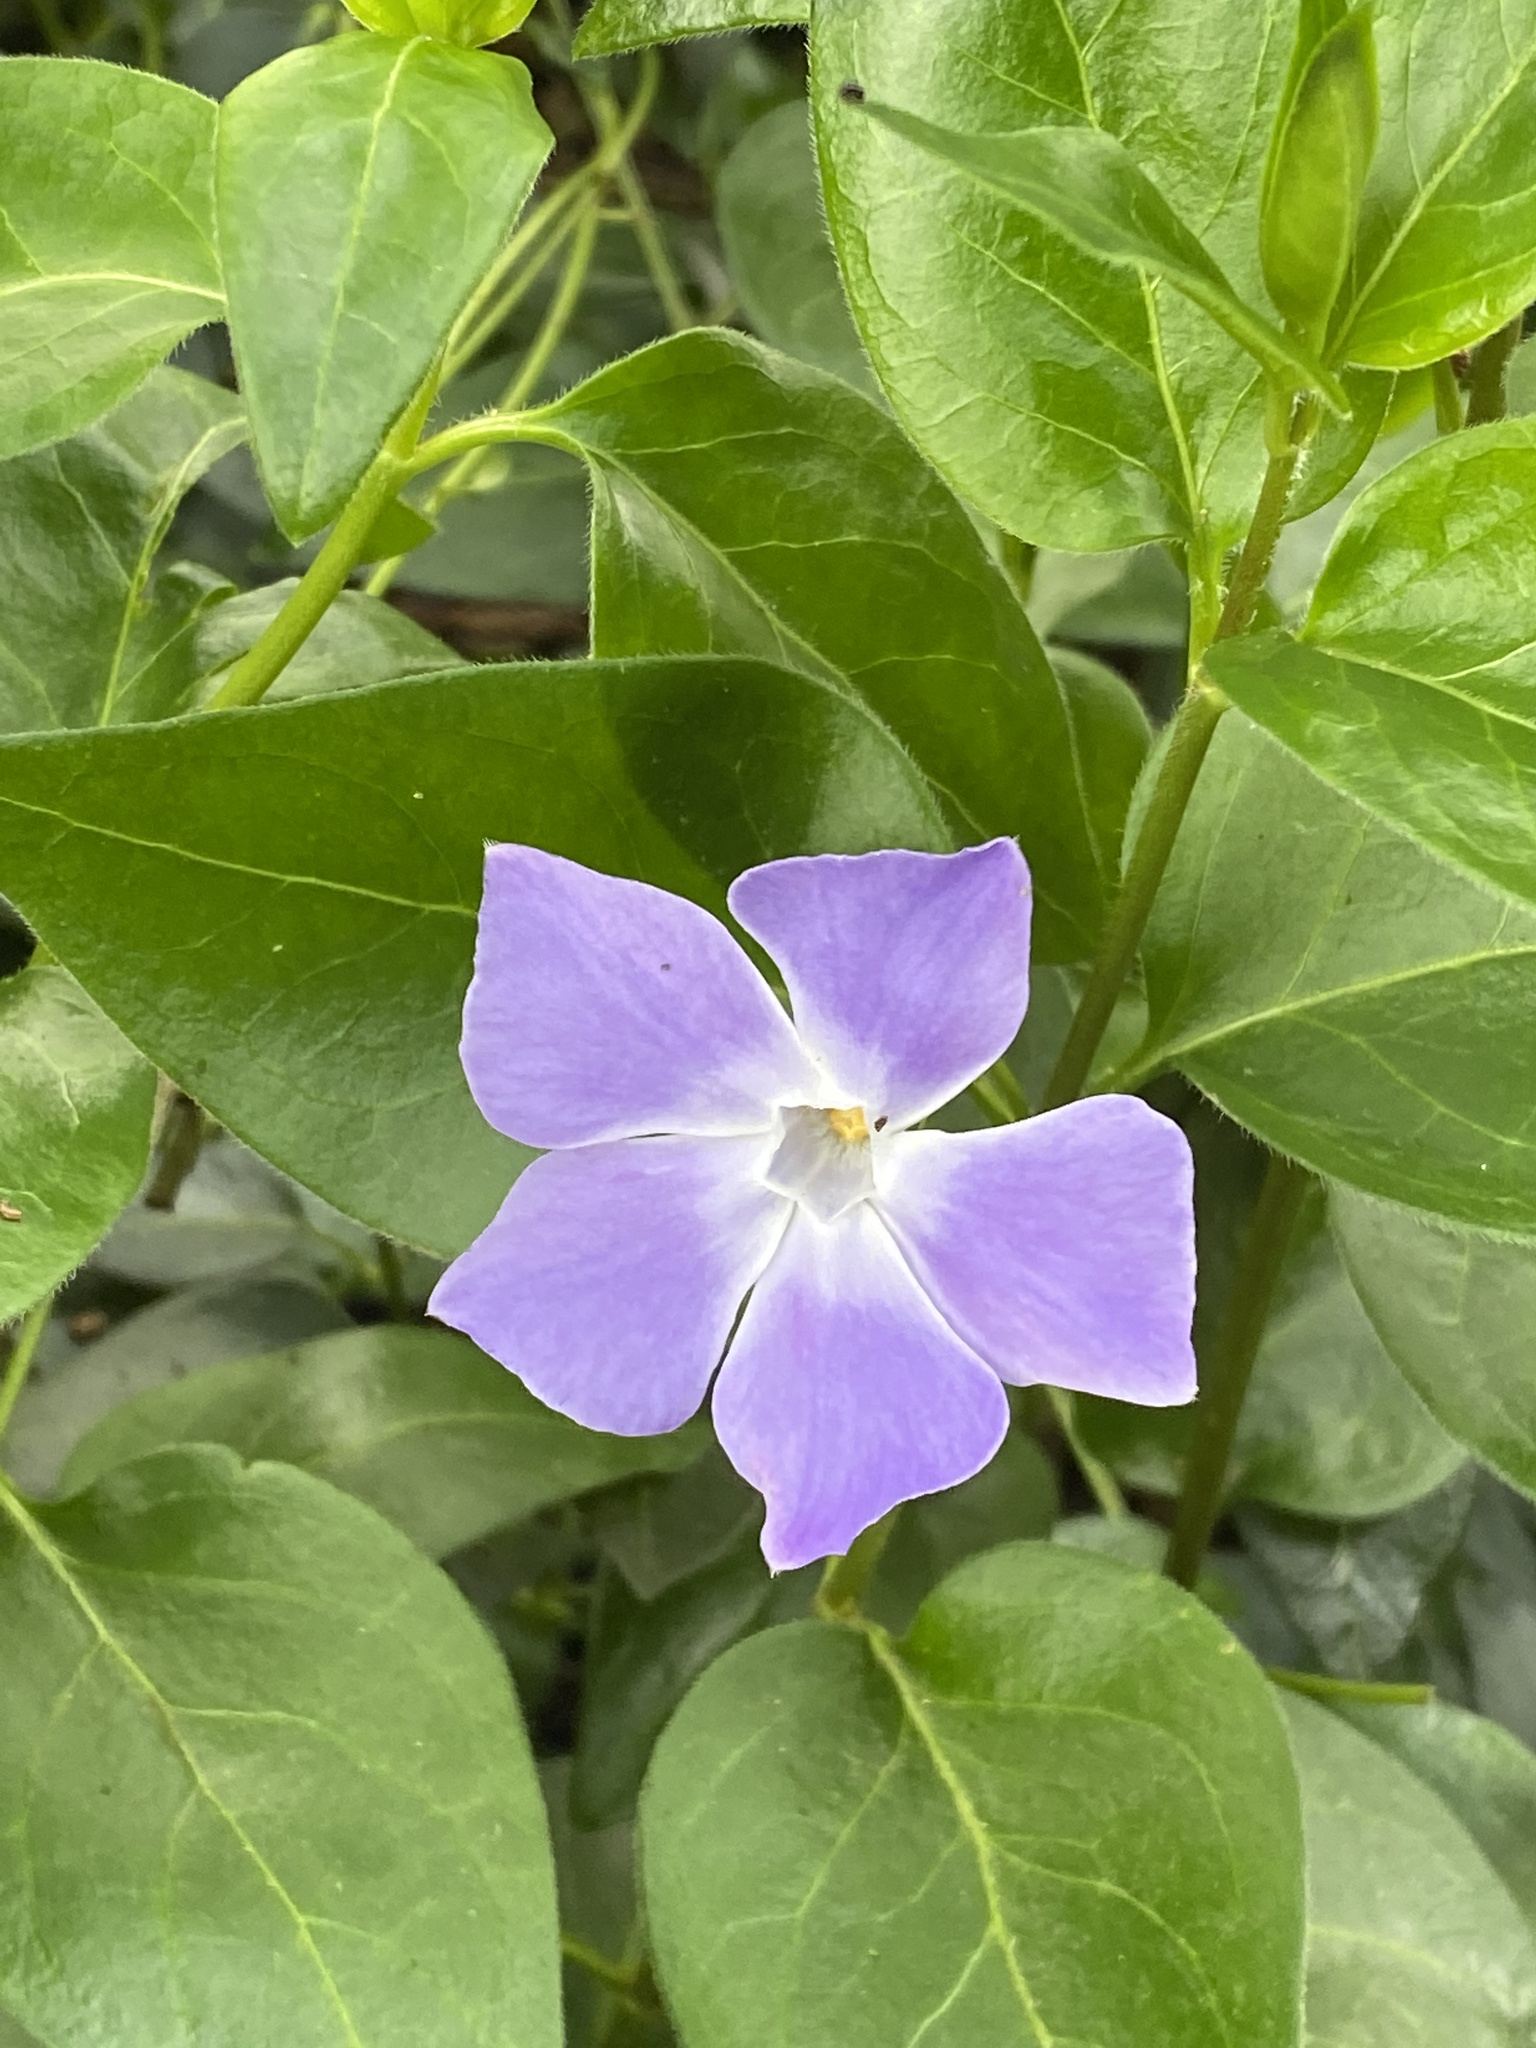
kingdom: Plantae
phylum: Tracheophyta
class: Magnoliopsida
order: Gentianales
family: Apocynaceae
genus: Vinca
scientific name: Vinca major
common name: Greater periwinkle
